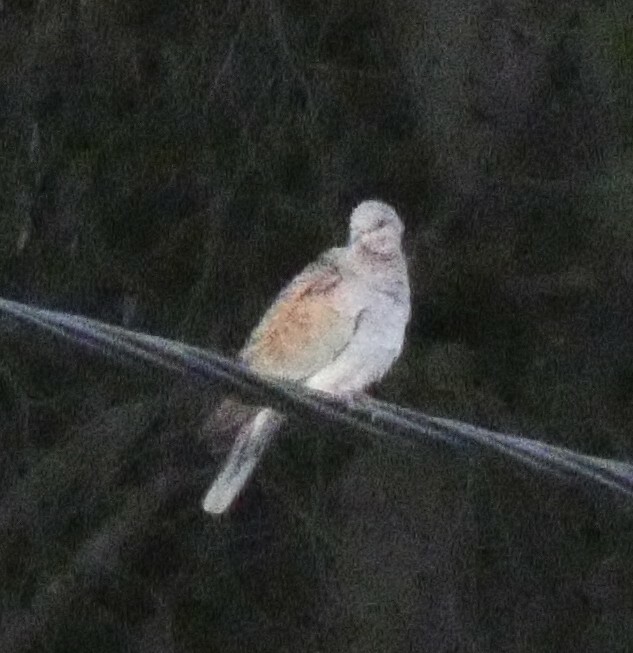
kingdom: Animalia
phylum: Chordata
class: Aves
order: Columbiformes
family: Columbidae
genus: Streptopelia
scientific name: Streptopelia turtur
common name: European turtle dove
